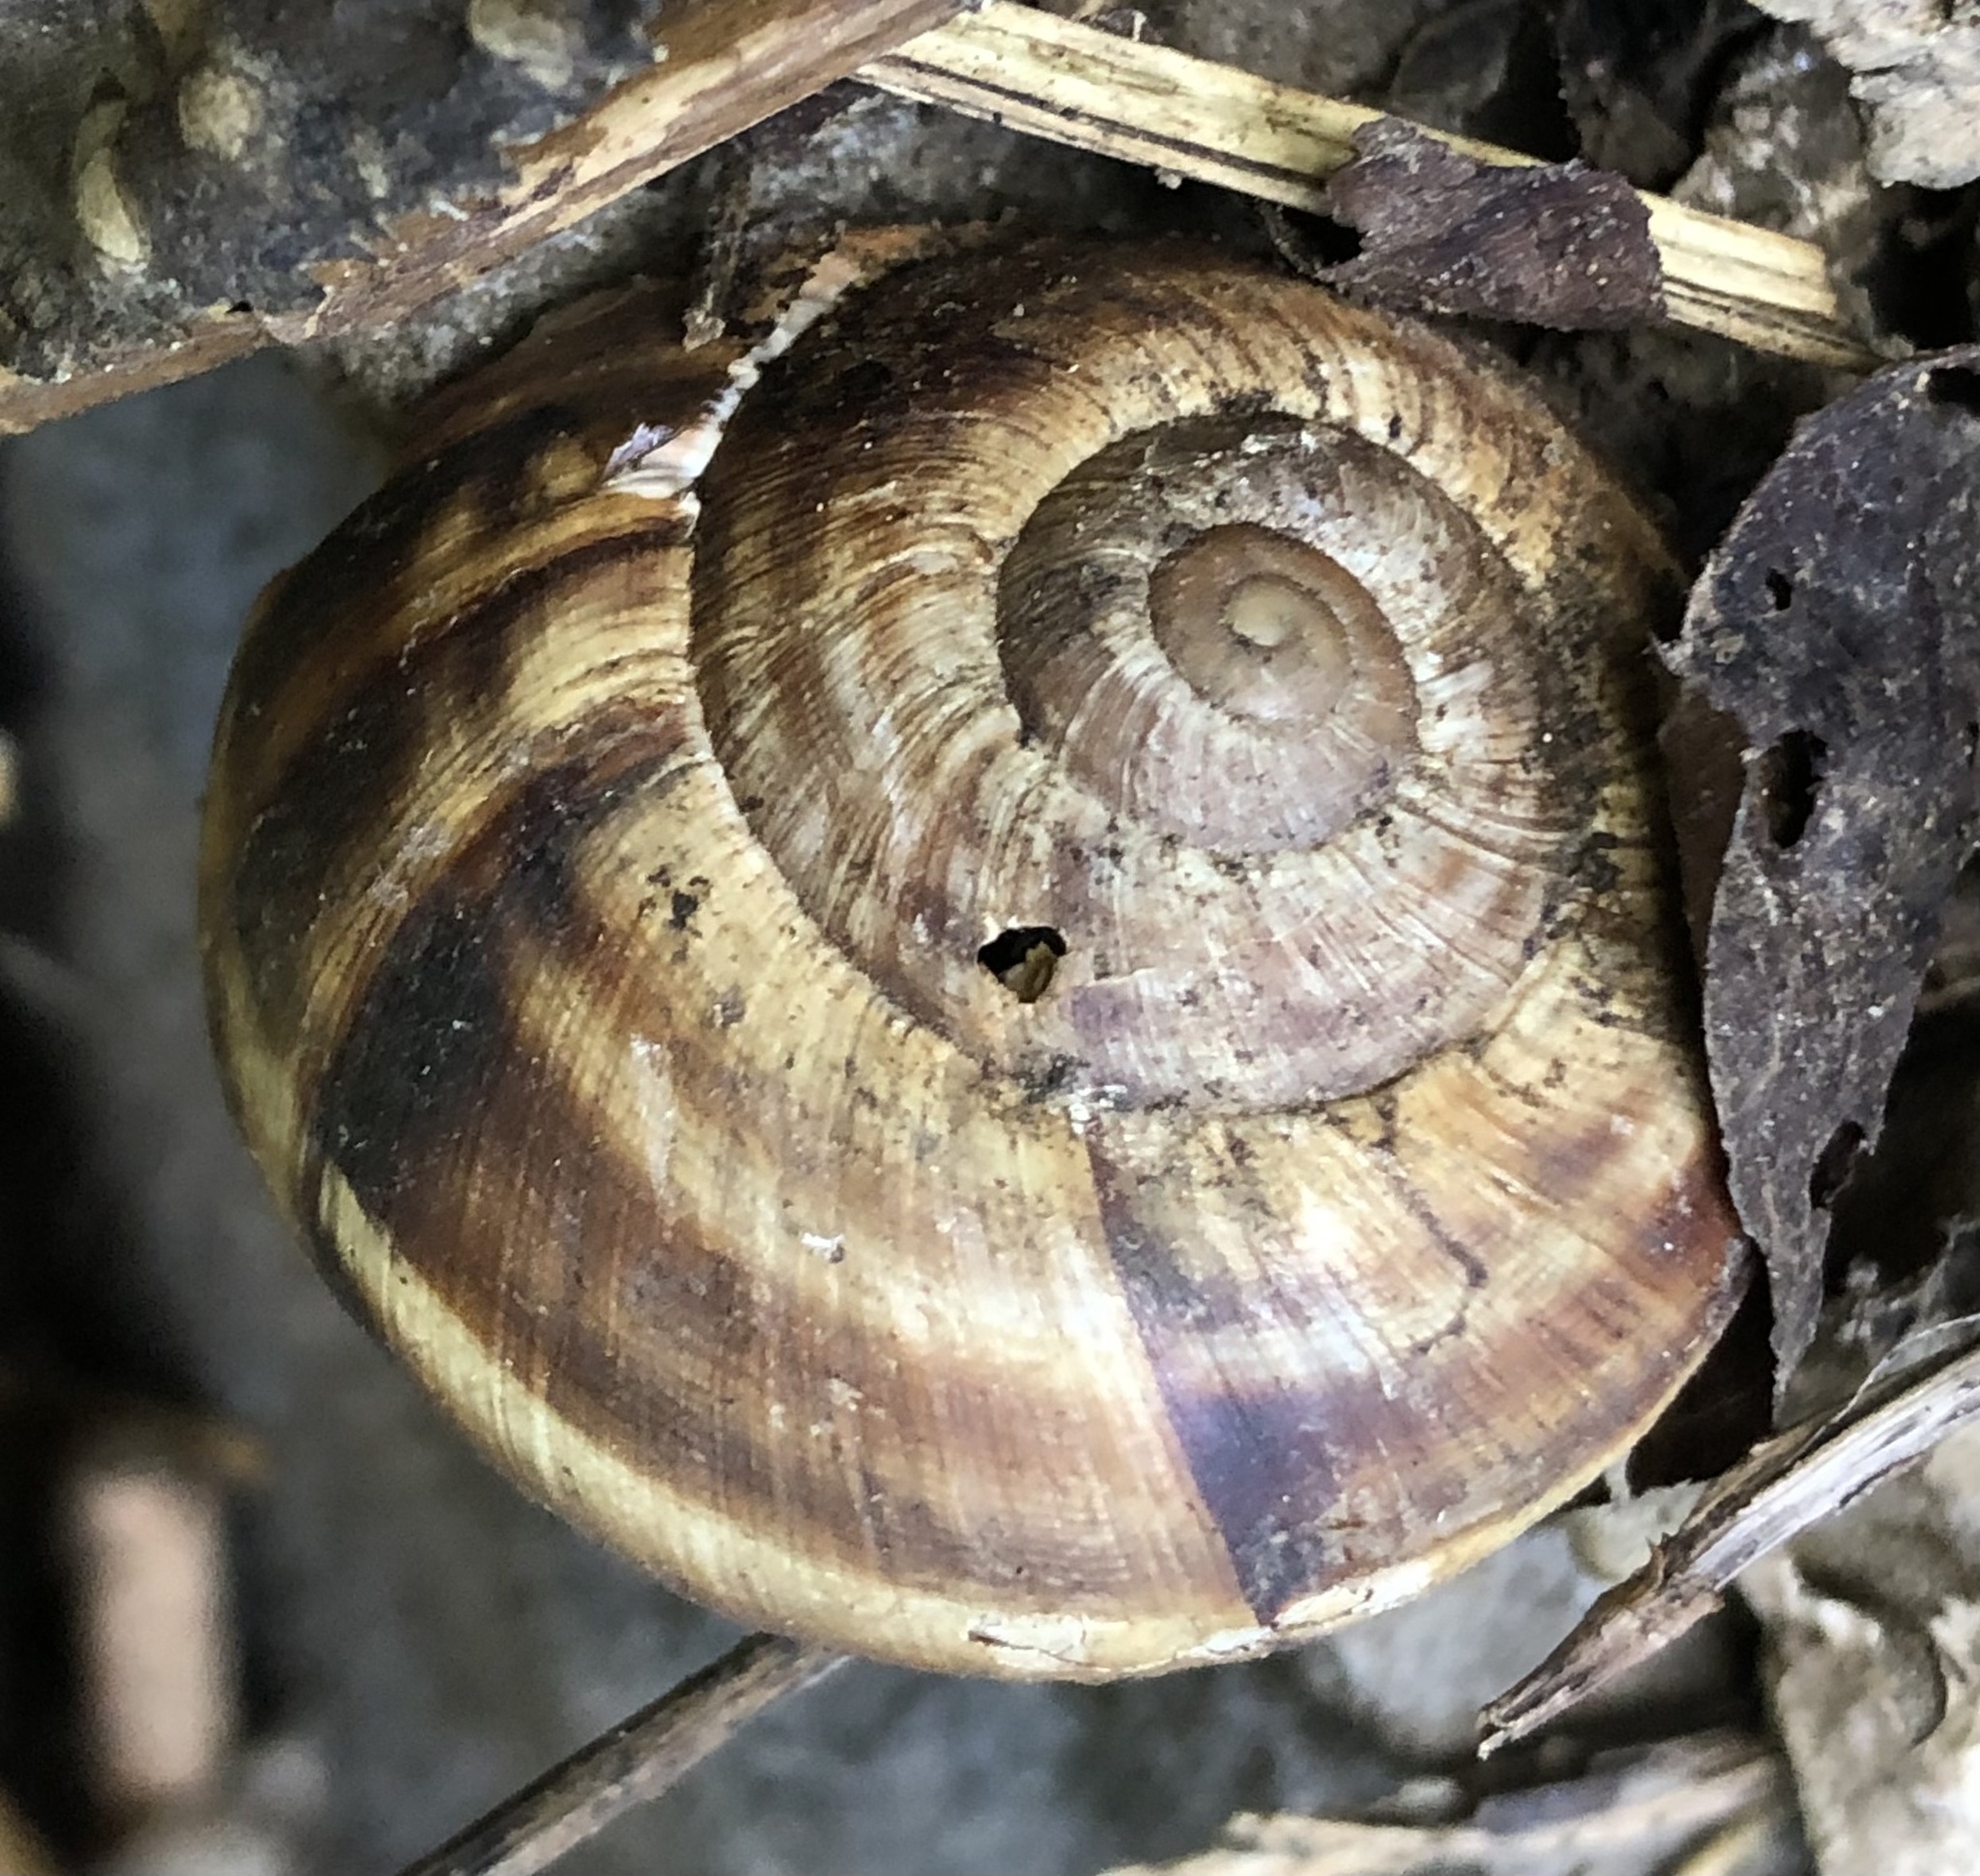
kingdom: Animalia
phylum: Mollusca
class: Gastropoda
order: Stylommatophora
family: Helicidae
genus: Helix
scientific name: Helix lucorum
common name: Turkish snail
